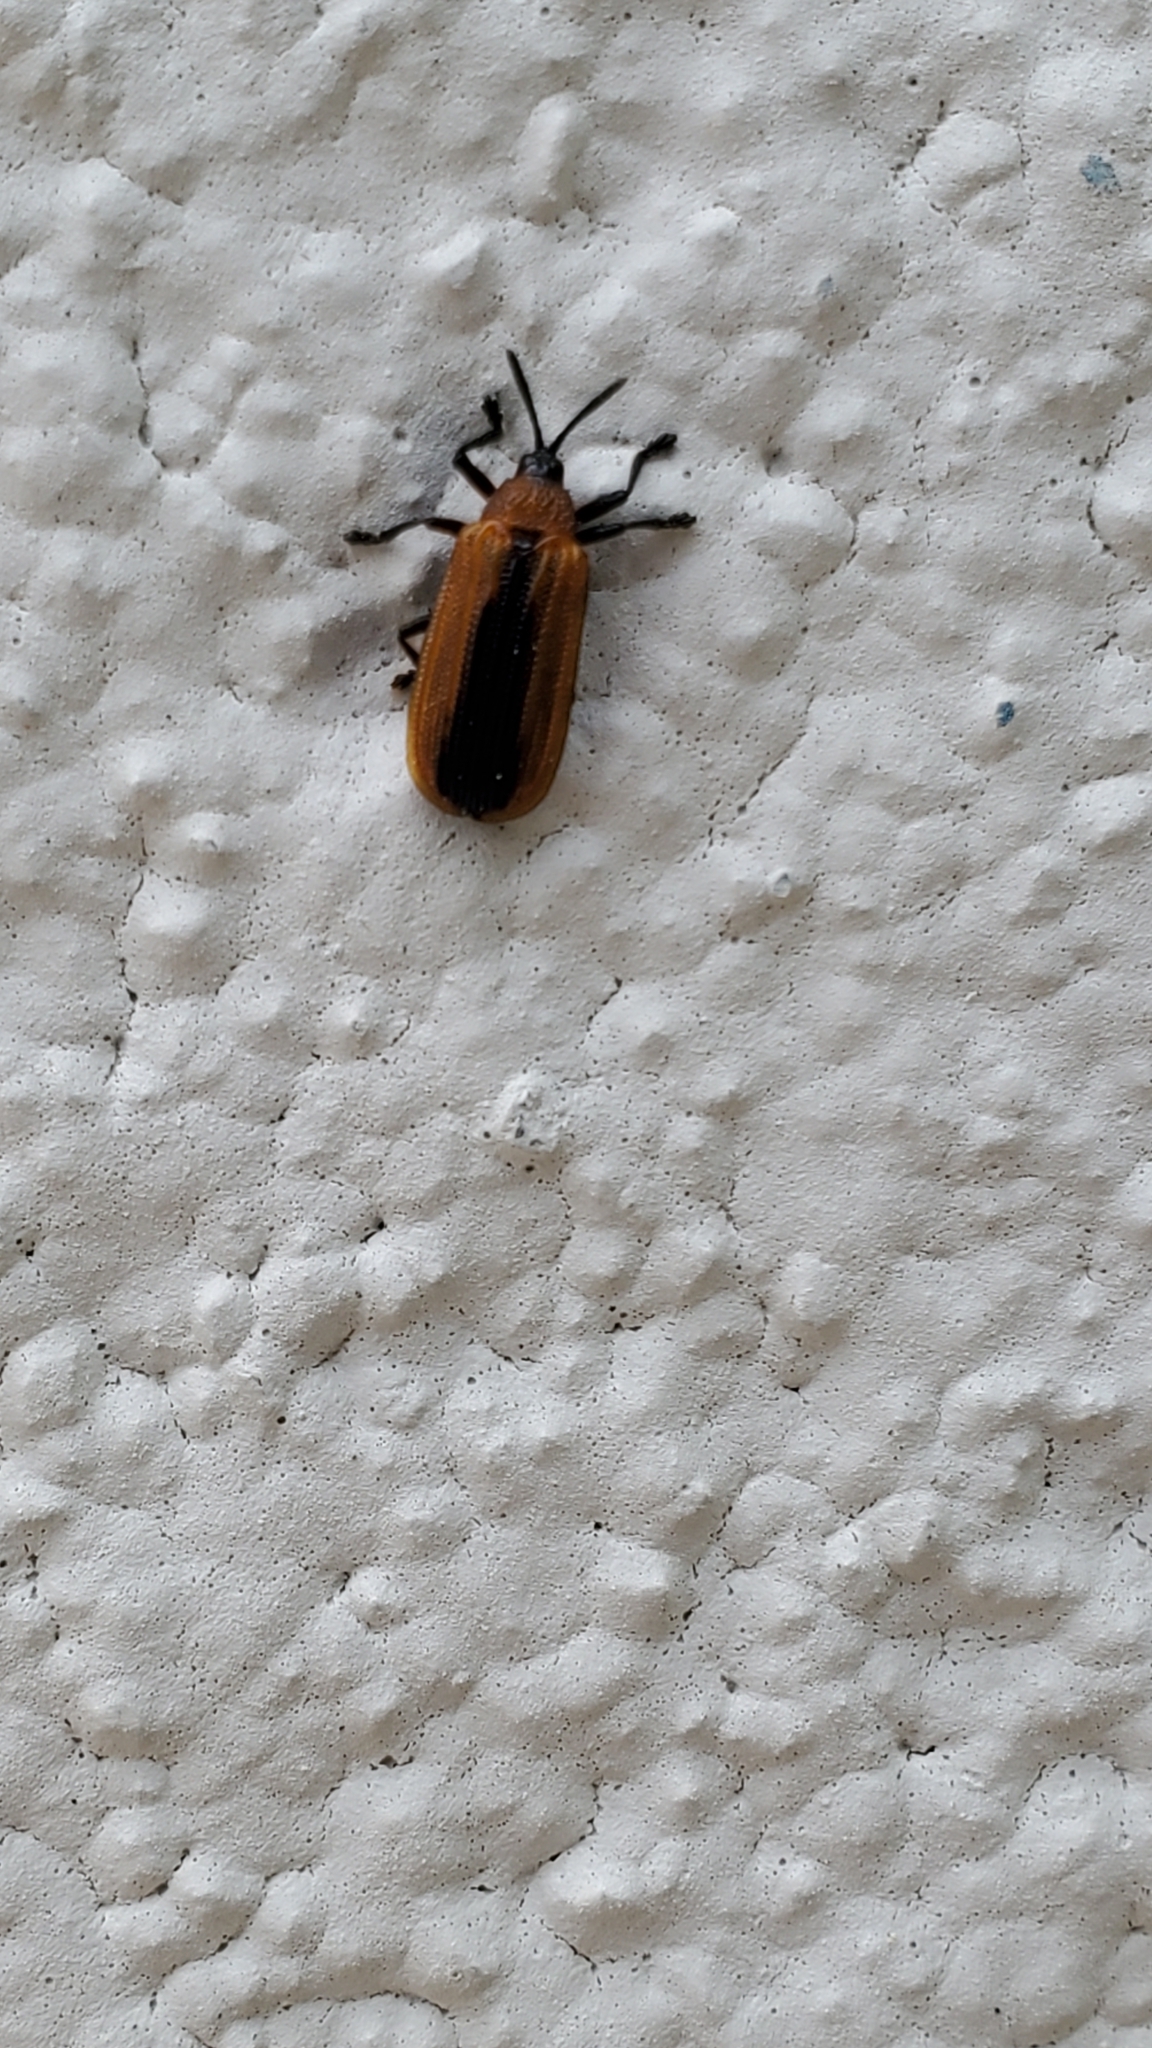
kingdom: Animalia
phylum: Arthropoda
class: Insecta
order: Coleoptera
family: Chrysomelidae
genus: Odontota
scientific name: Odontota dorsalis
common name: Locust leaf-miner beetle
